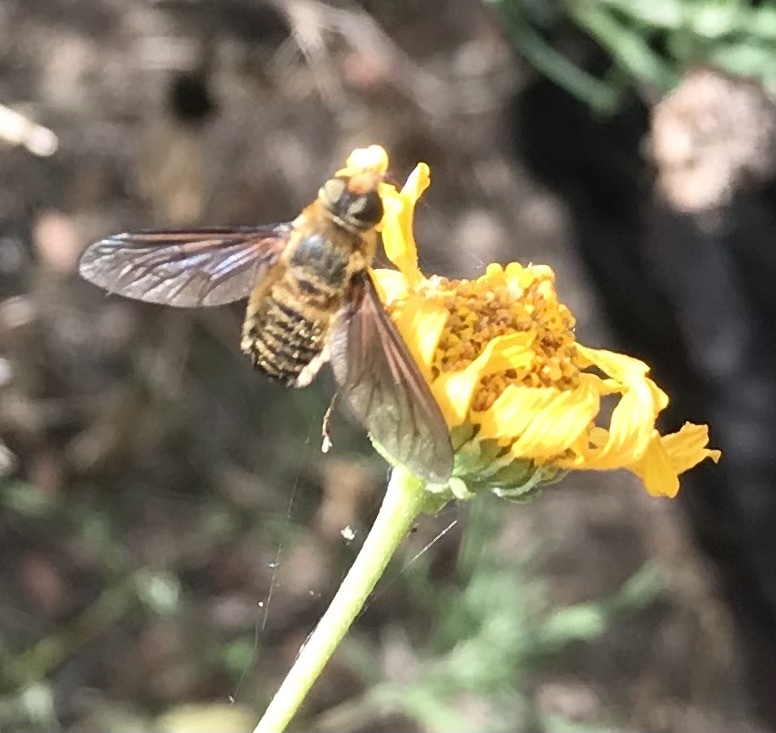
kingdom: Animalia
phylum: Arthropoda
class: Insecta
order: Diptera
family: Bombyliidae
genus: Poecilanthrax
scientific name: Poecilanthrax lucifer
